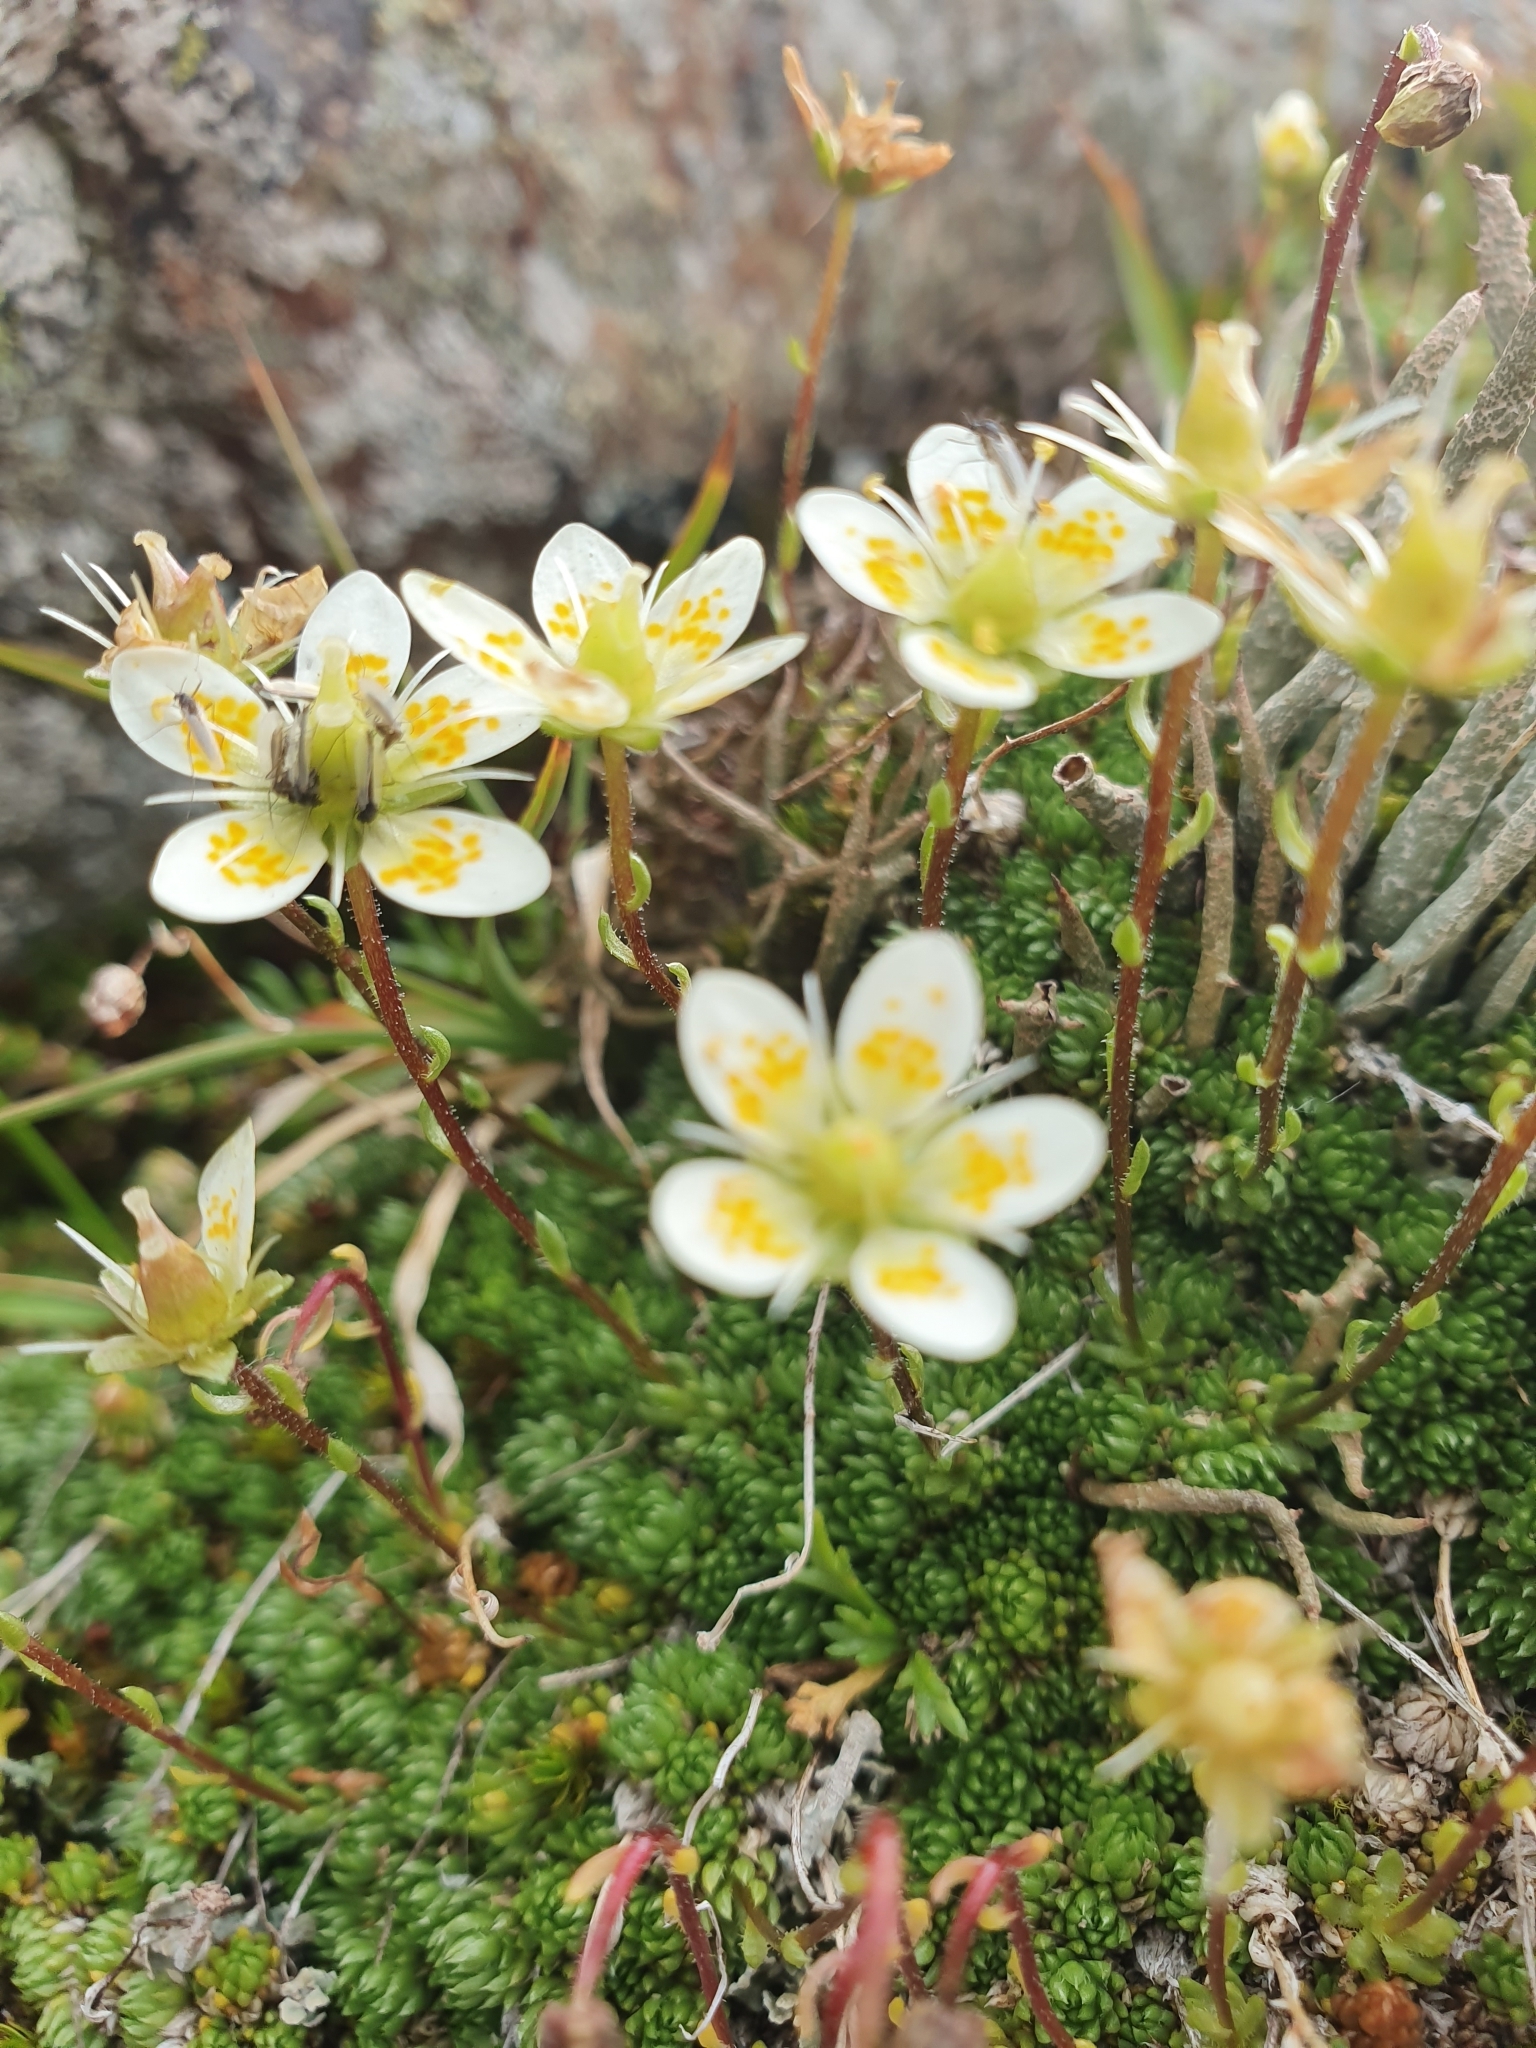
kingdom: Plantae
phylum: Tracheophyta
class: Magnoliopsida
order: Saxifragales
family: Saxifragaceae
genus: Saxifraga
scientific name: Saxifraga bryoides
